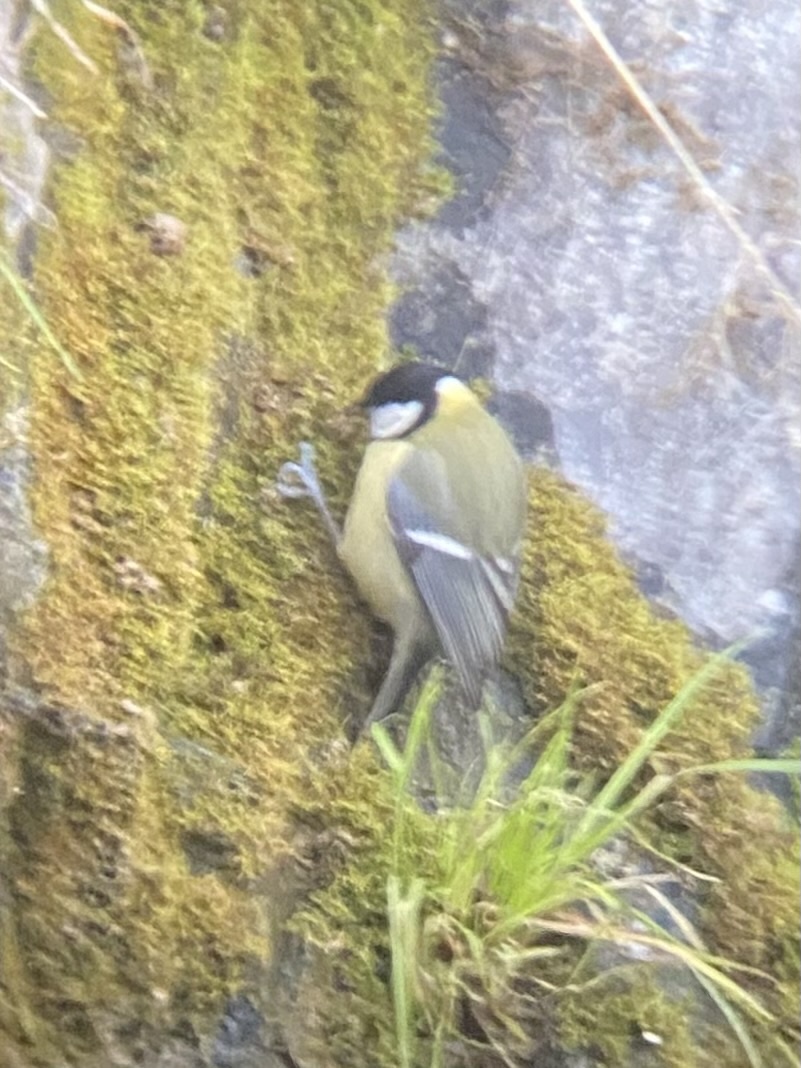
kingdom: Animalia
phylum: Chordata
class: Aves
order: Passeriformes
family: Paridae
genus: Parus
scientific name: Parus major
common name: Great tit
